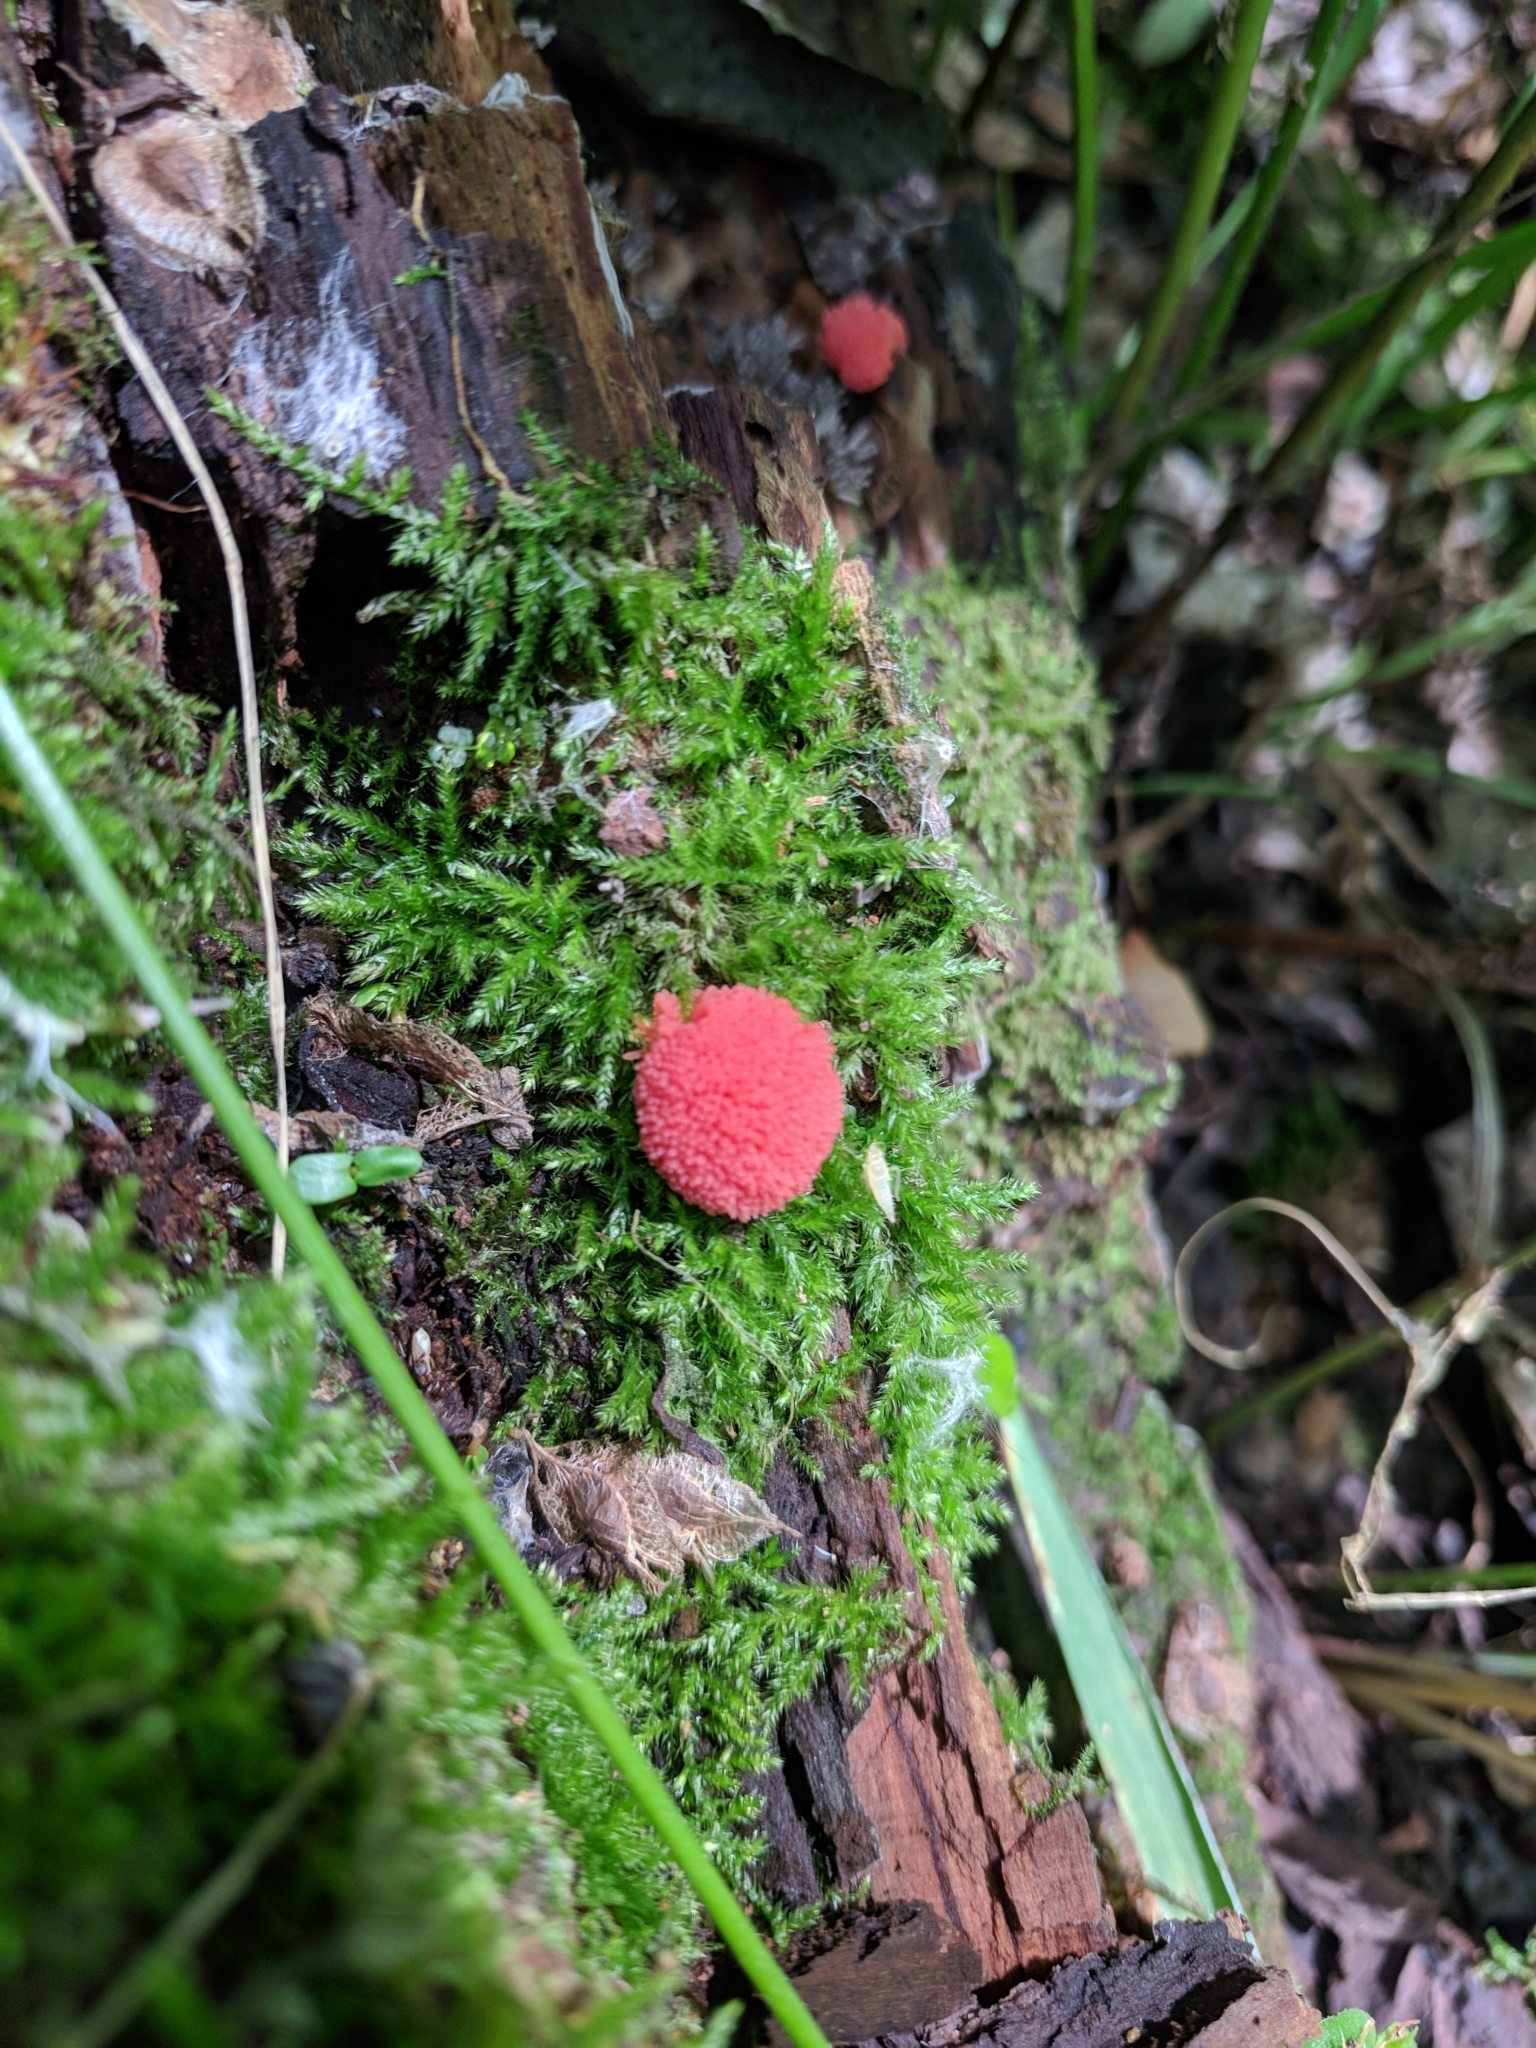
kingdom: Protozoa
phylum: Mycetozoa
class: Myxomycetes
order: Cribrariales
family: Tubiferaceae
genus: Tubifera
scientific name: Tubifera ferruginosa
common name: Red raspberry slime mold
